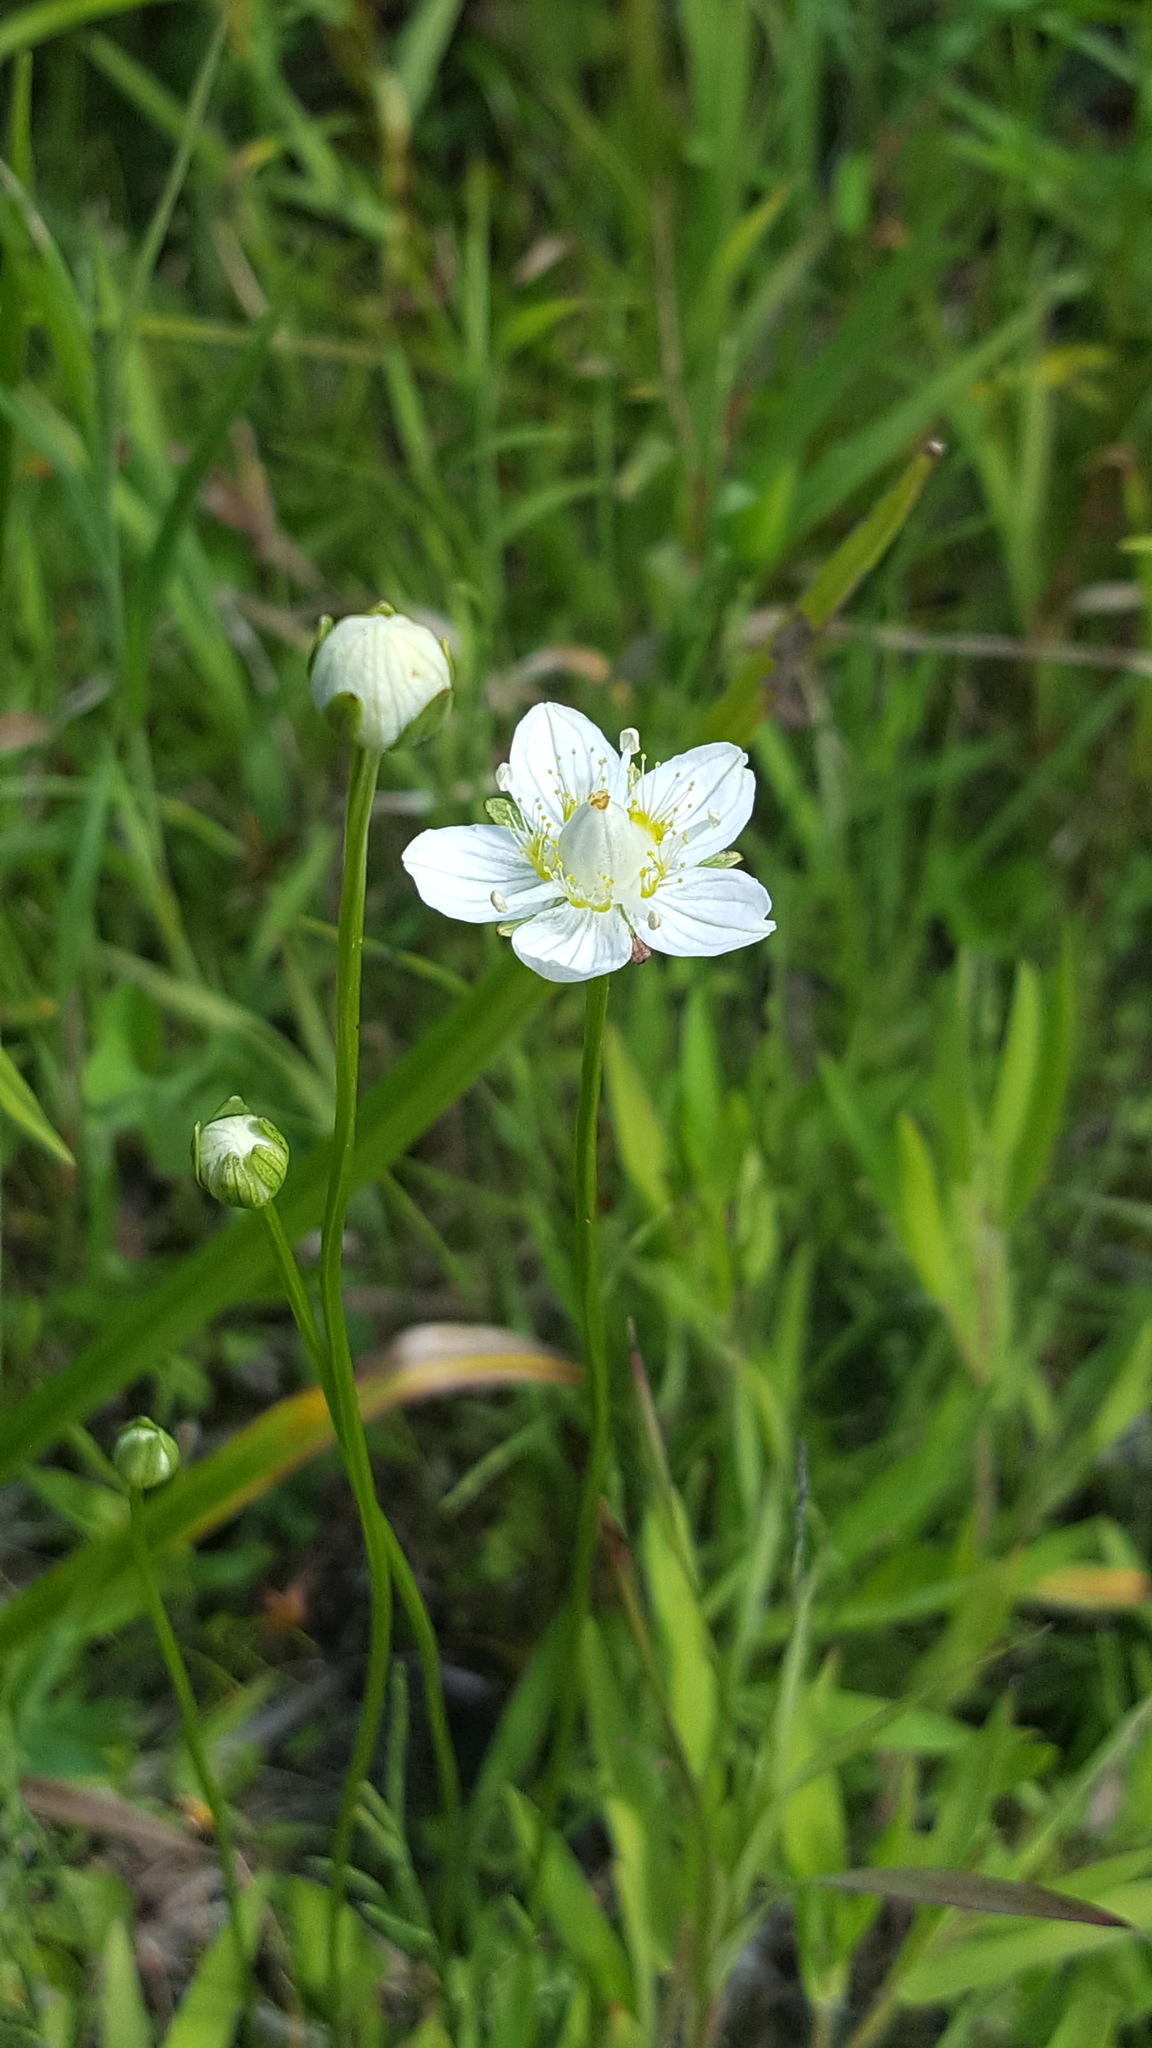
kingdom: Plantae
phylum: Tracheophyta
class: Magnoliopsida
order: Celastrales
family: Parnassiaceae
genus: Parnassia
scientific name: Parnassia palustris
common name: Grass-of-parnassus
